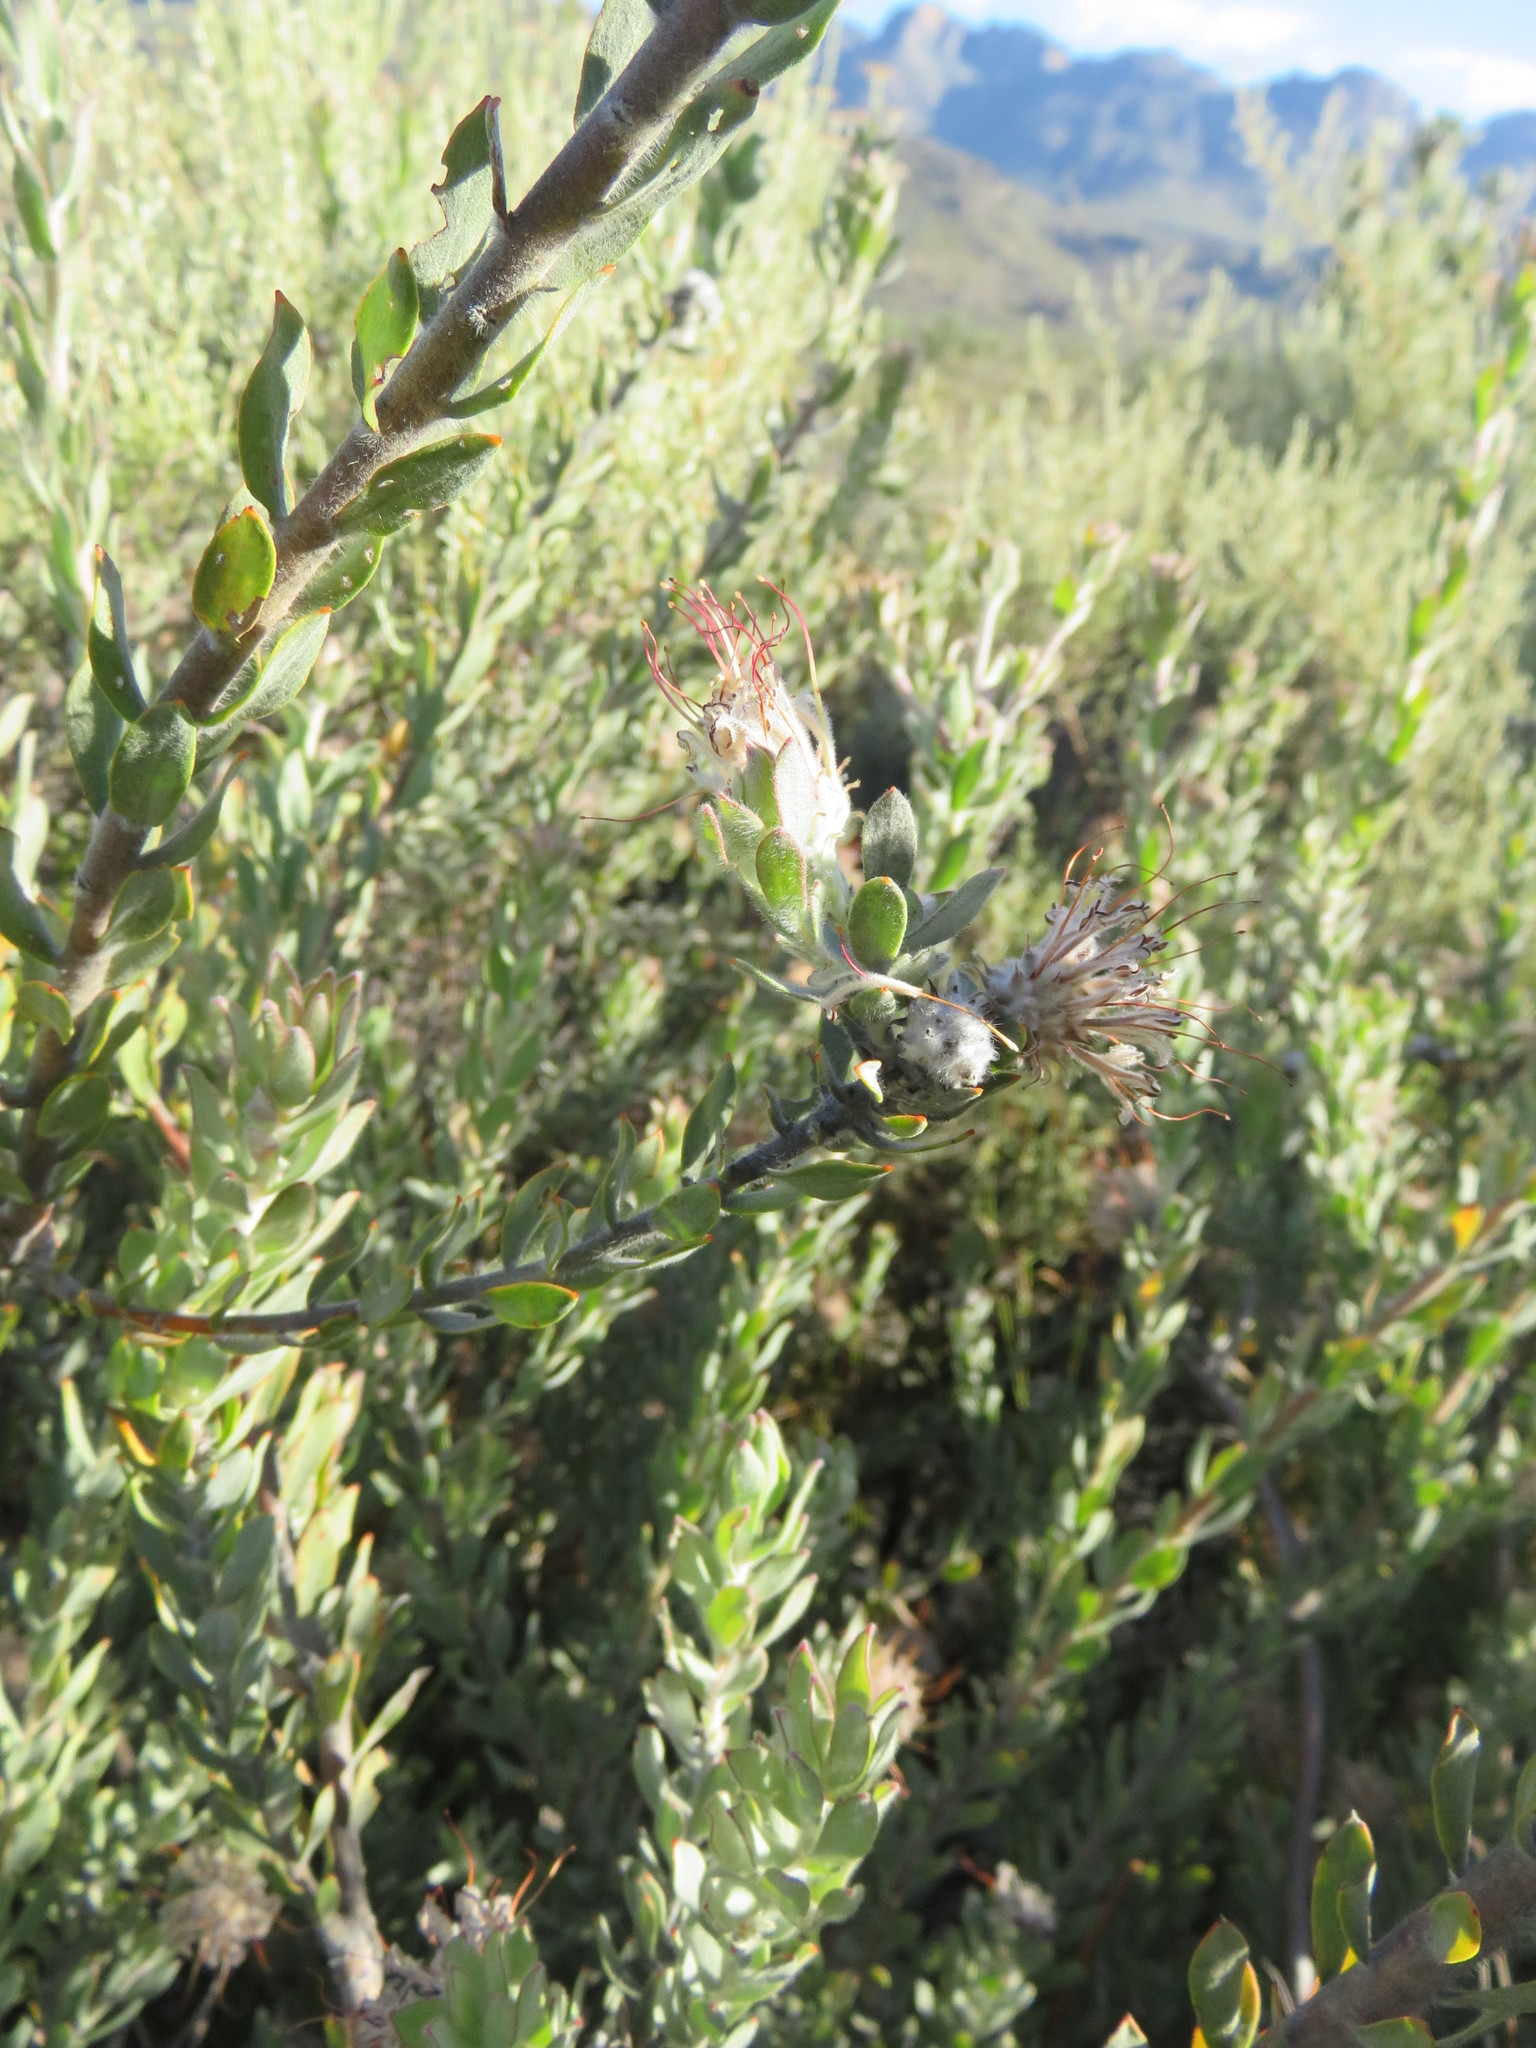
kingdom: Plantae
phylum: Tracheophyta
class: Magnoliopsida
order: Proteales
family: Proteaceae
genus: Leucospermum
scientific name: Leucospermum calligerum
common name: Arid pincushion
